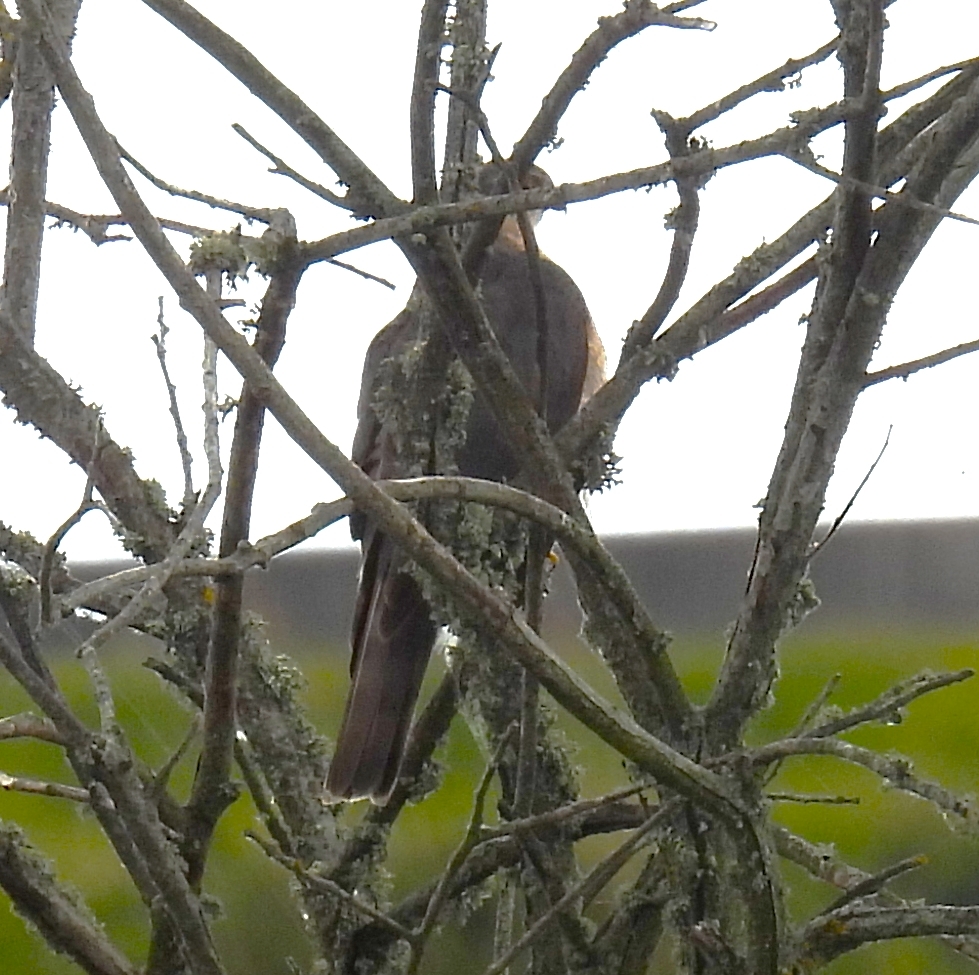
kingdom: Animalia
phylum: Chordata
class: Aves
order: Accipitriformes
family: Accipitridae
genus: Accipiter
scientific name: Accipiter nisus
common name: Eurasian sparrowhawk
